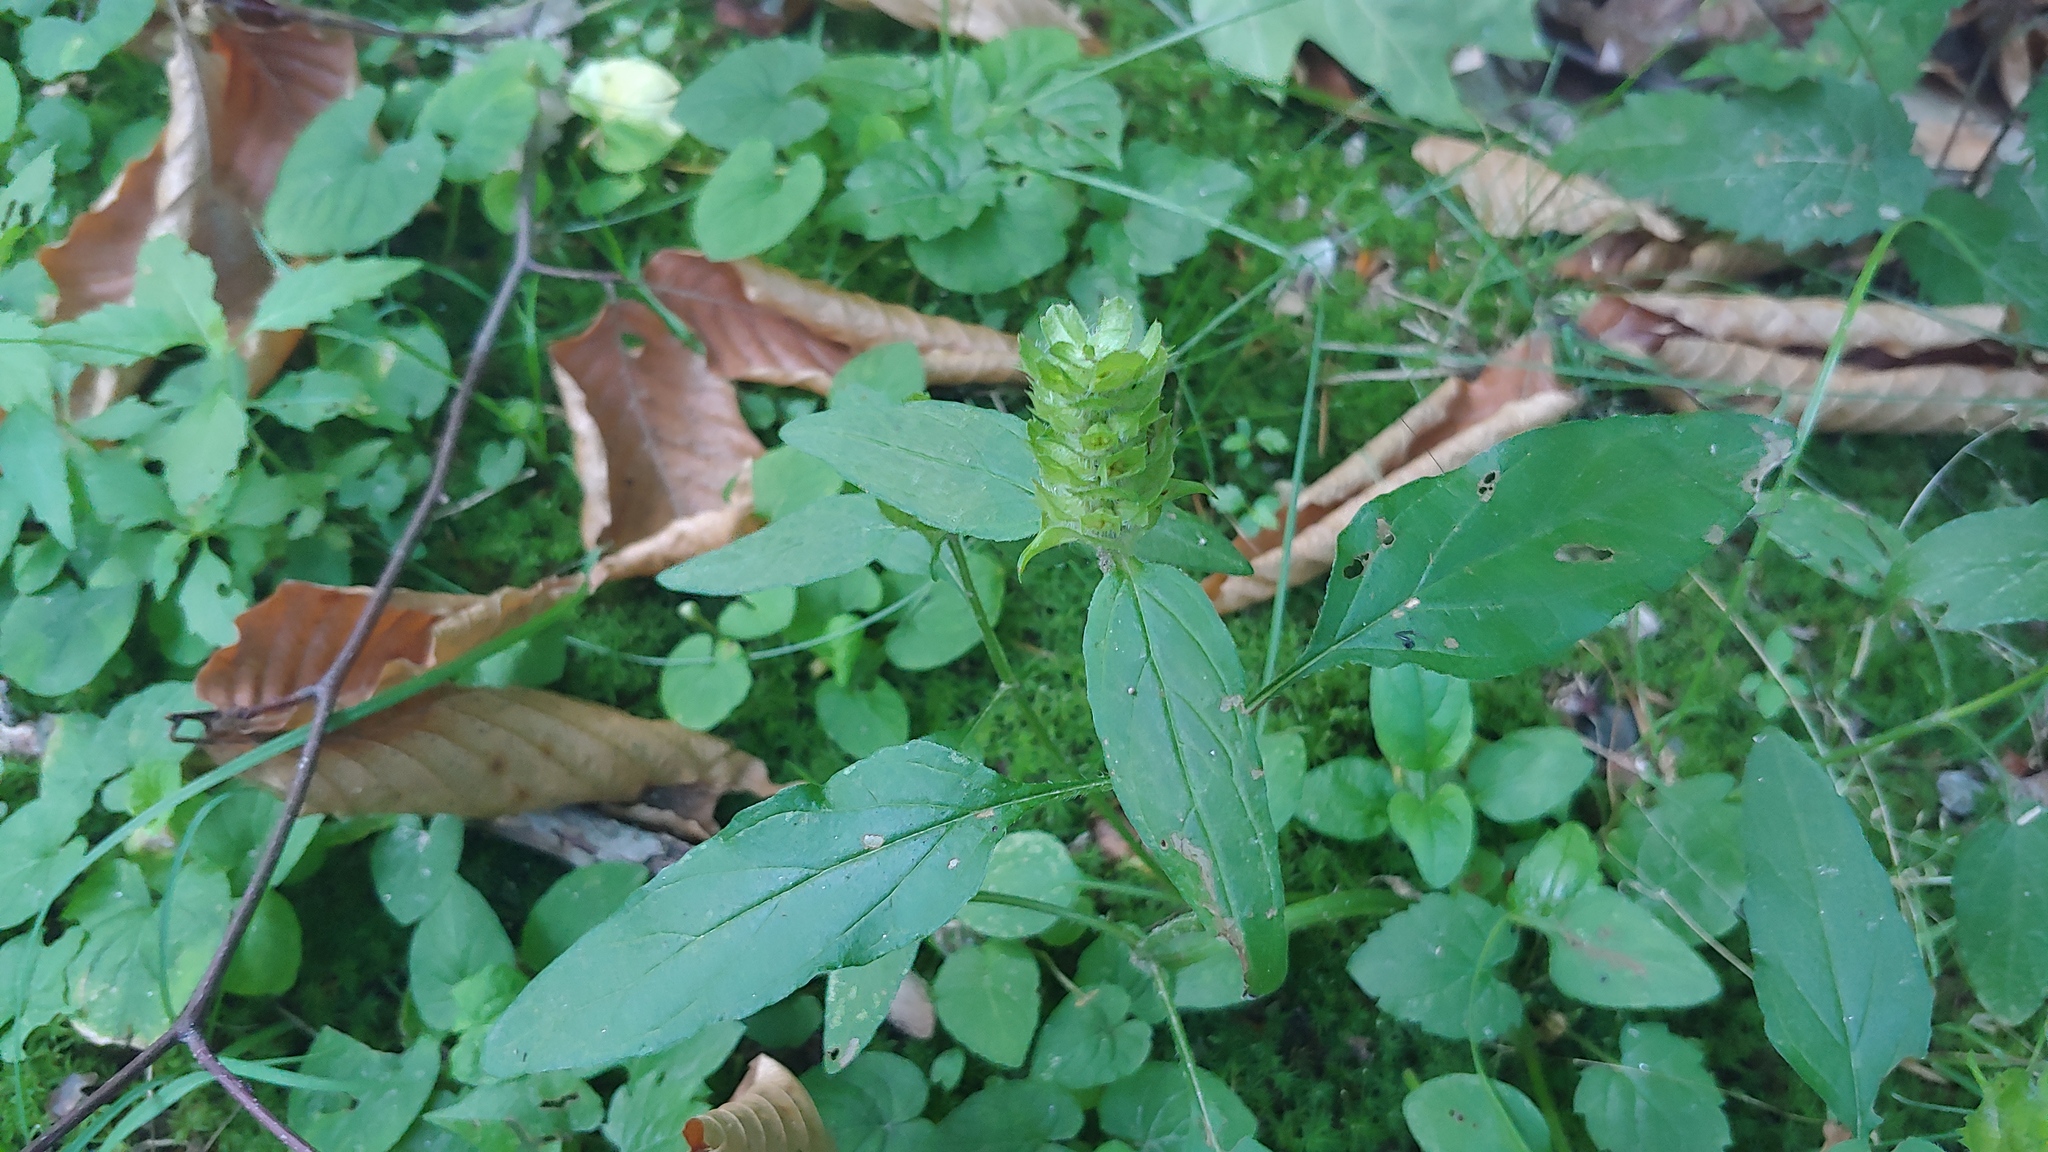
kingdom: Plantae
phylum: Tracheophyta
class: Magnoliopsida
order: Lamiales
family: Lamiaceae
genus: Prunella
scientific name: Prunella vulgaris
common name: Heal-all
